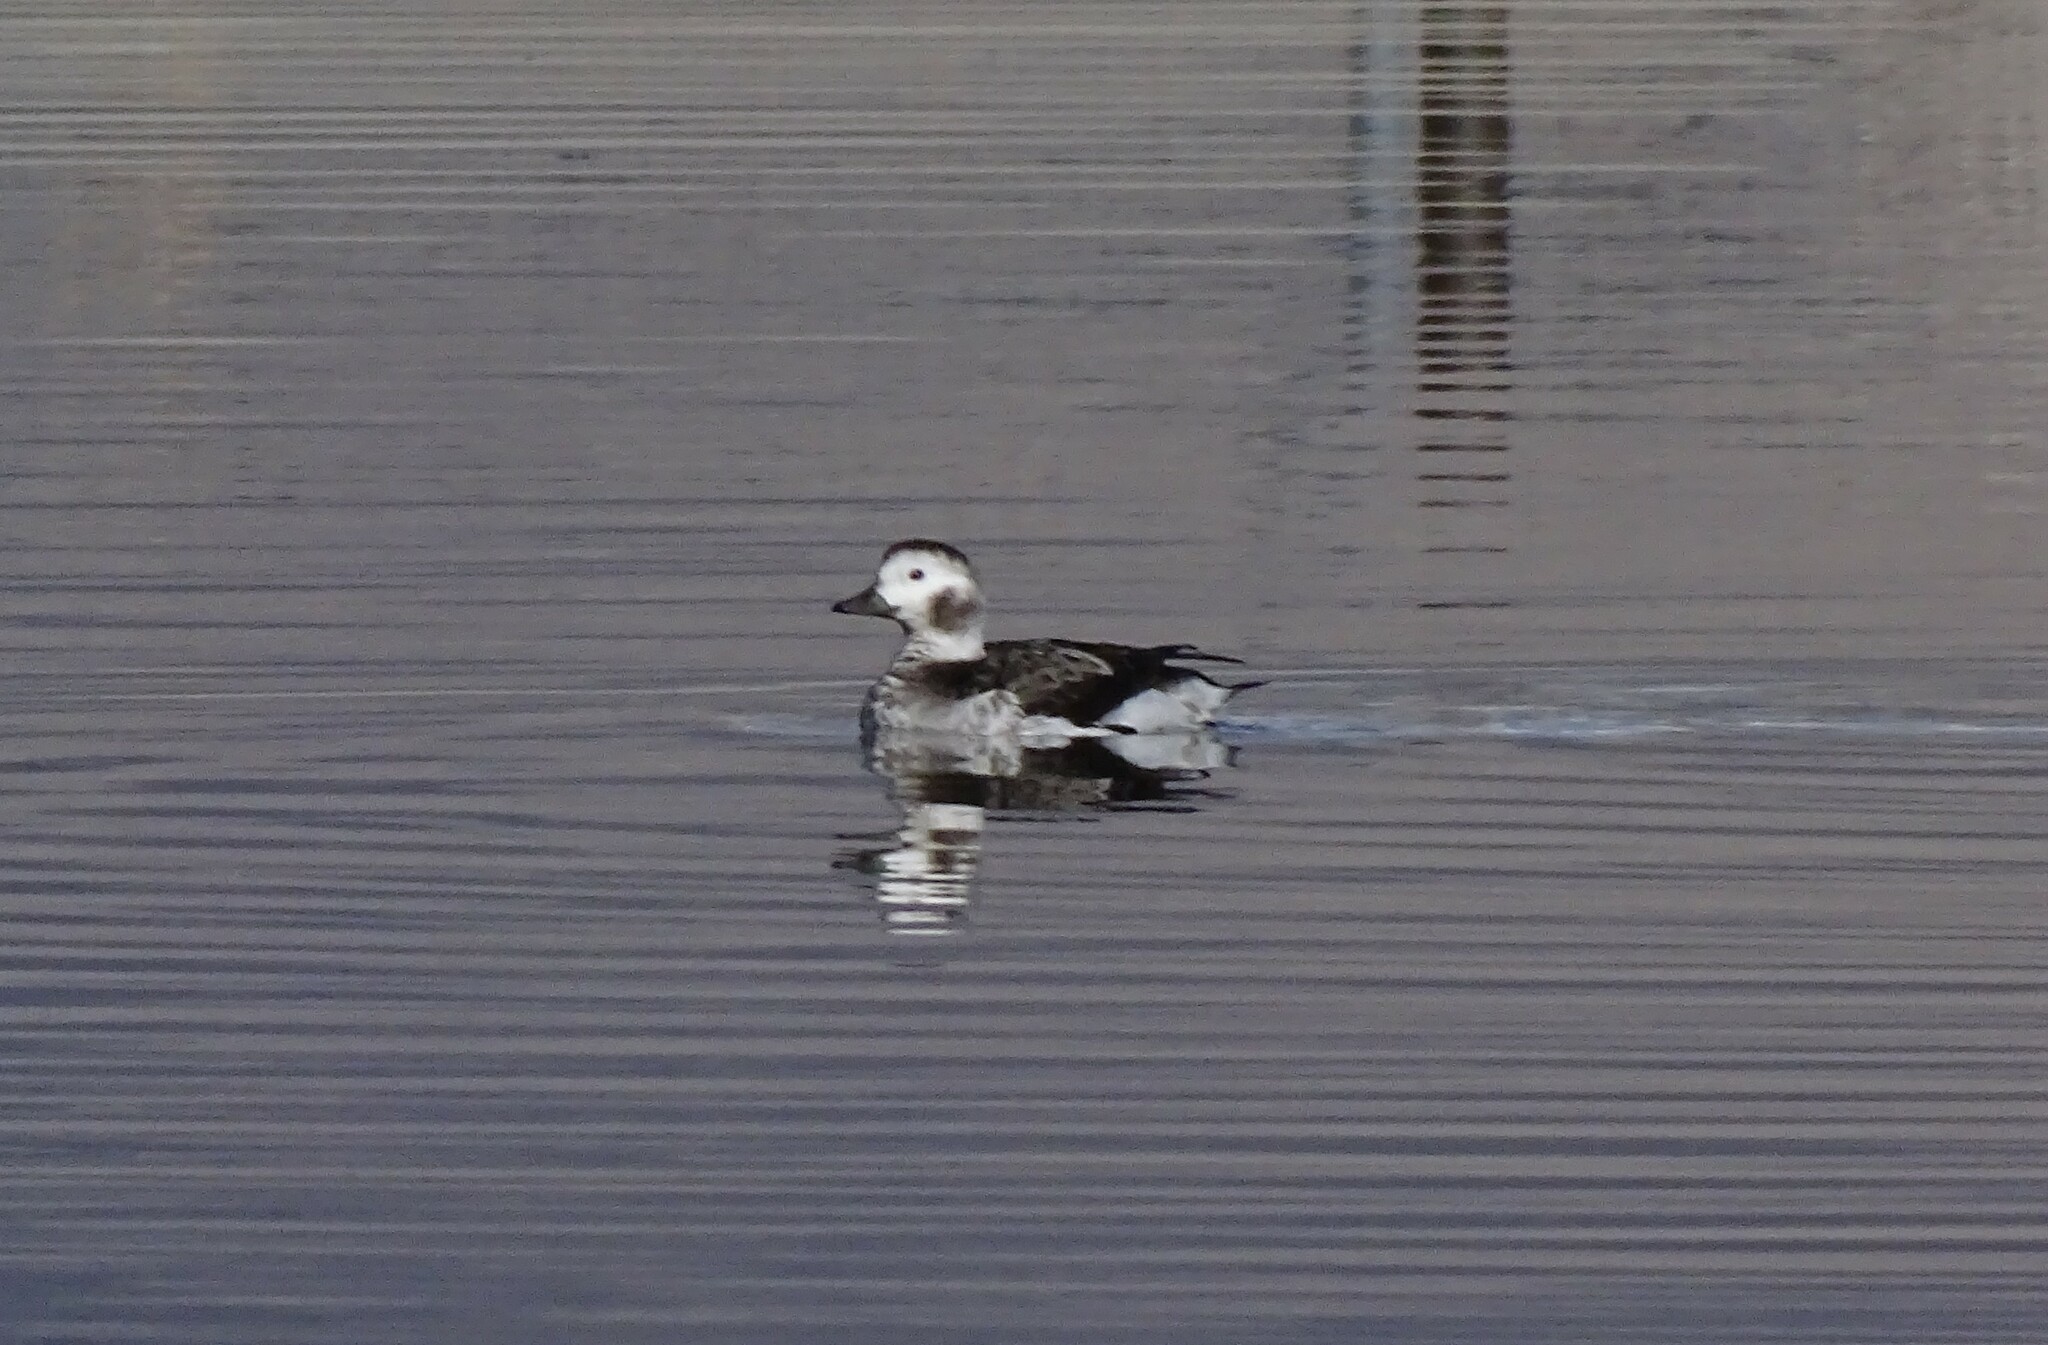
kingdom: Animalia
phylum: Chordata
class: Aves
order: Anseriformes
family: Anatidae
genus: Clangula
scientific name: Clangula hyemalis
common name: Long-tailed duck
